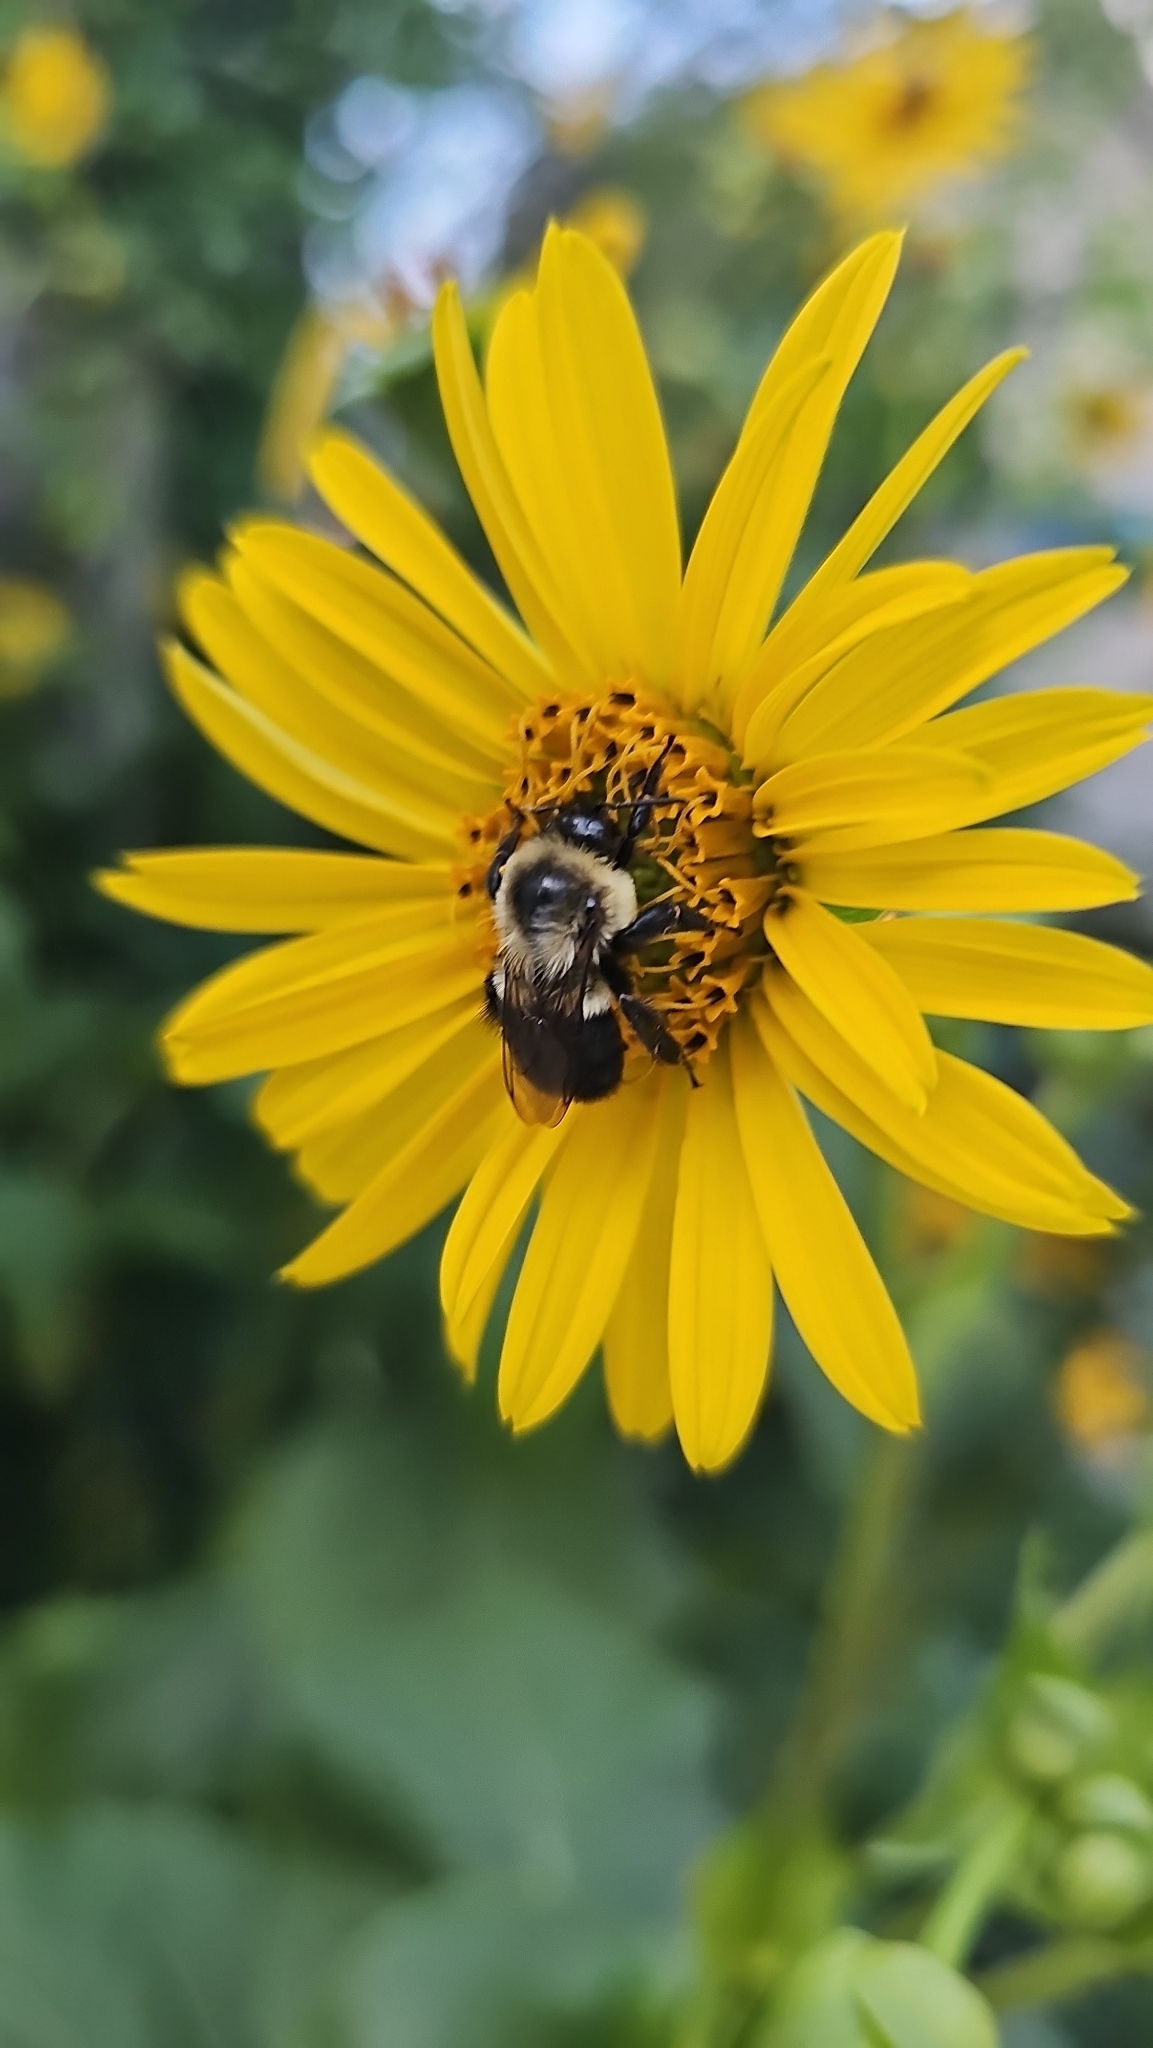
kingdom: Animalia
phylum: Arthropoda
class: Insecta
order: Hymenoptera
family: Apidae
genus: Bombus
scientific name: Bombus impatiens
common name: Common eastern bumble bee
